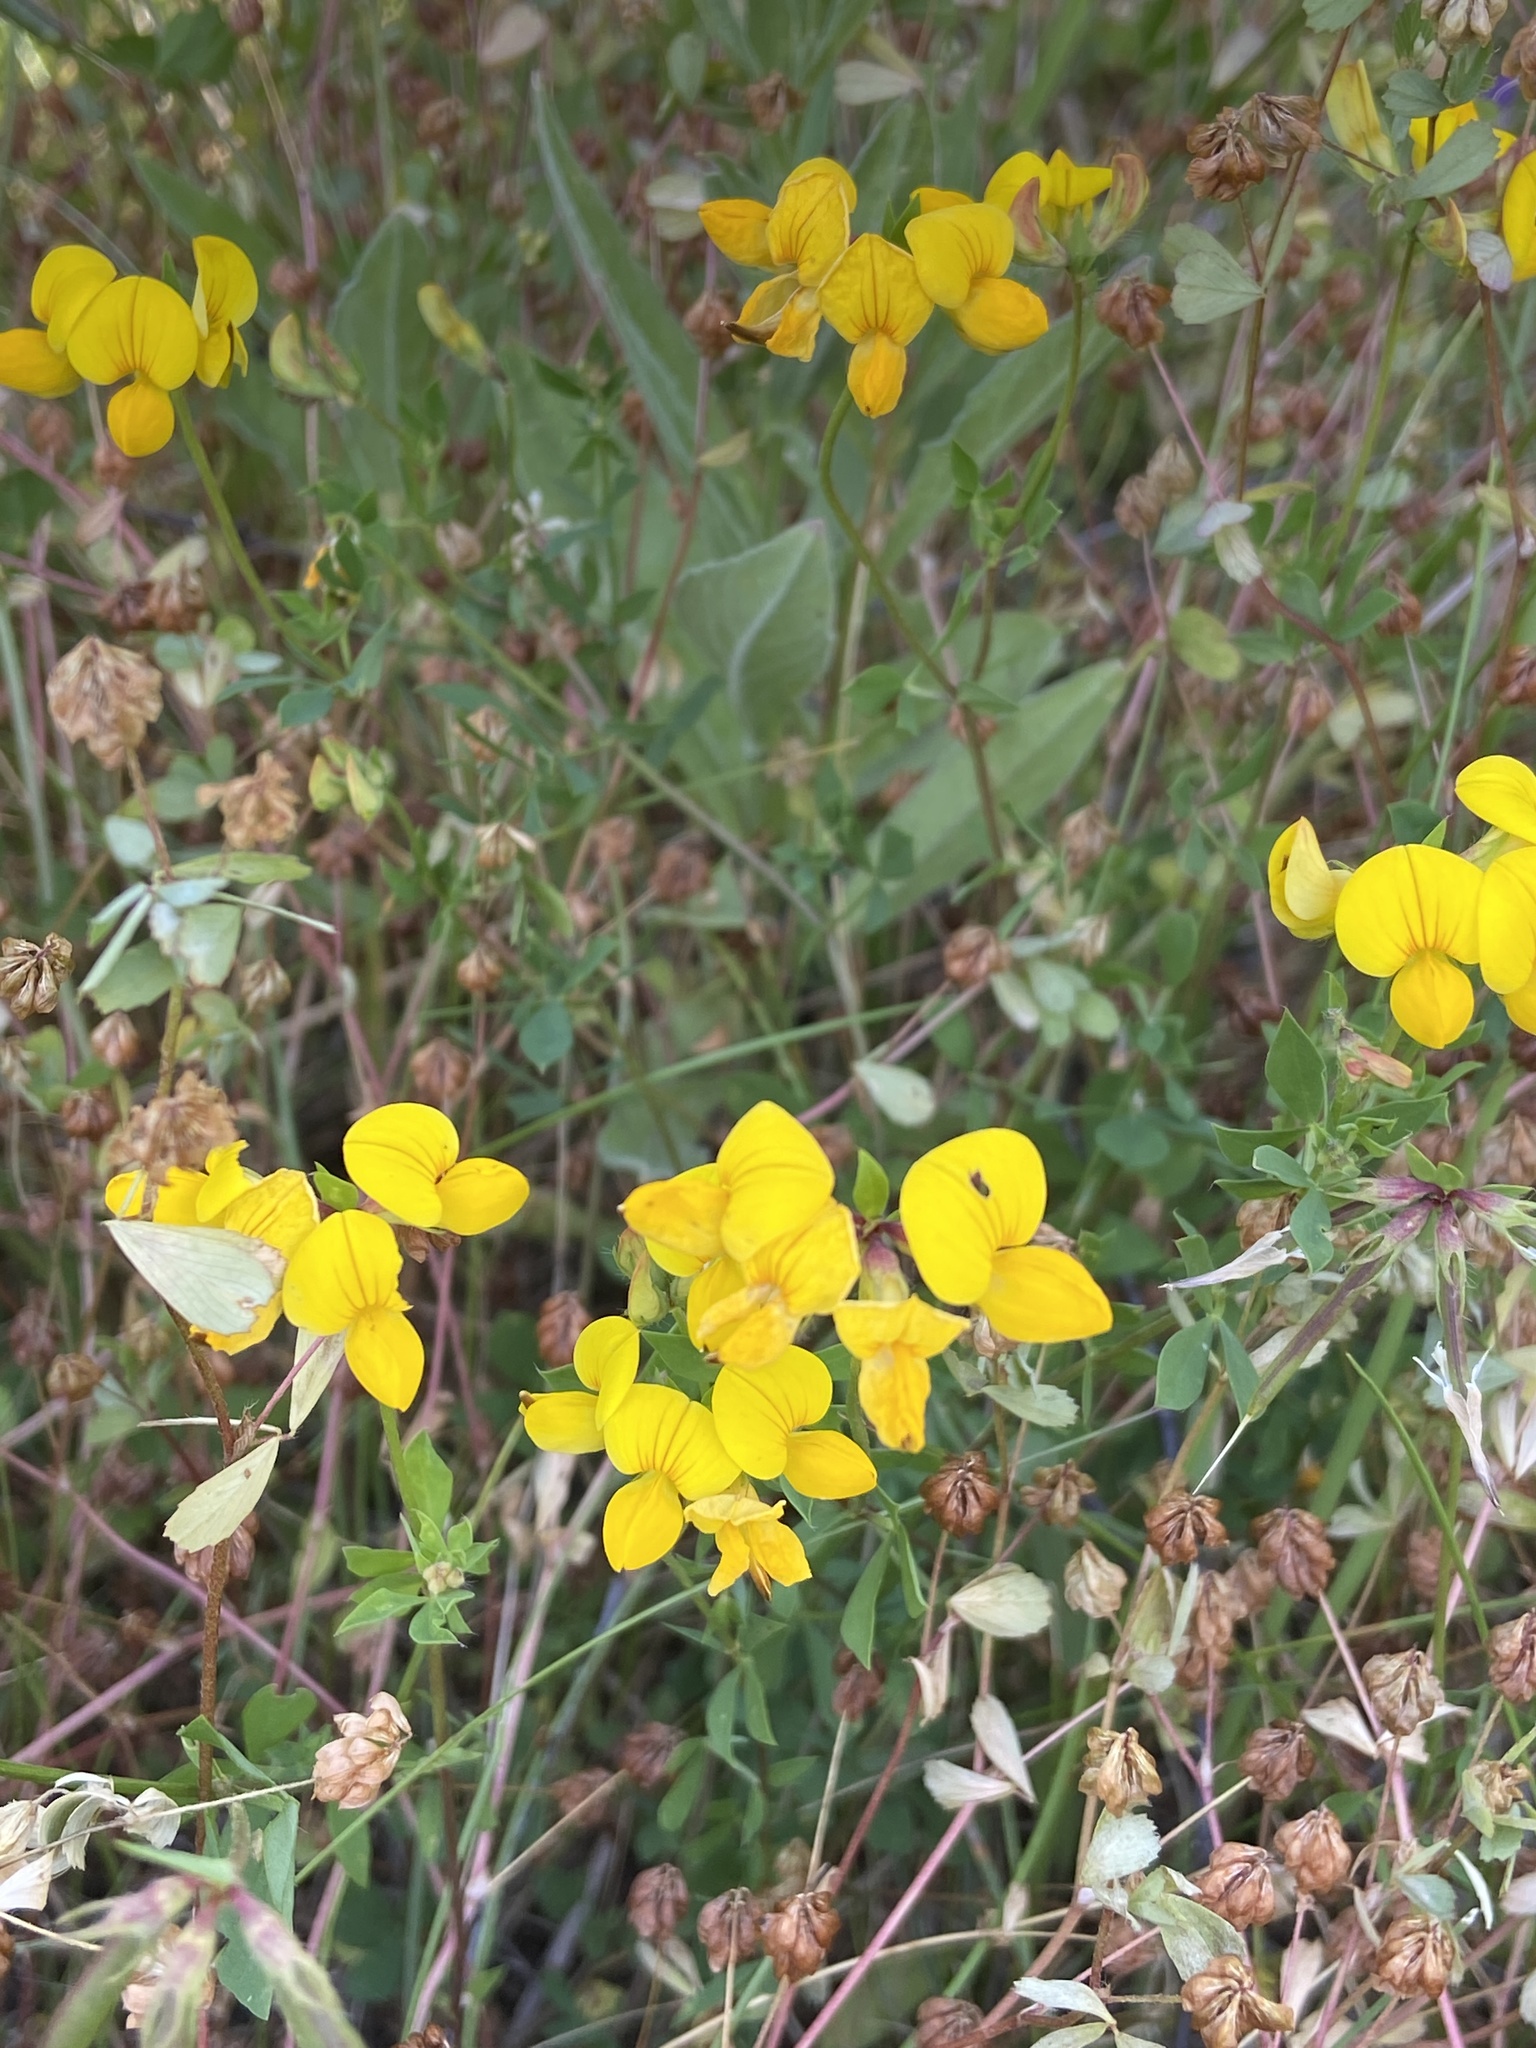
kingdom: Plantae
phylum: Tracheophyta
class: Magnoliopsida
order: Fabales
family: Fabaceae
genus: Lotus
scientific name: Lotus corniculatus
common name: Common bird's-foot-trefoil
